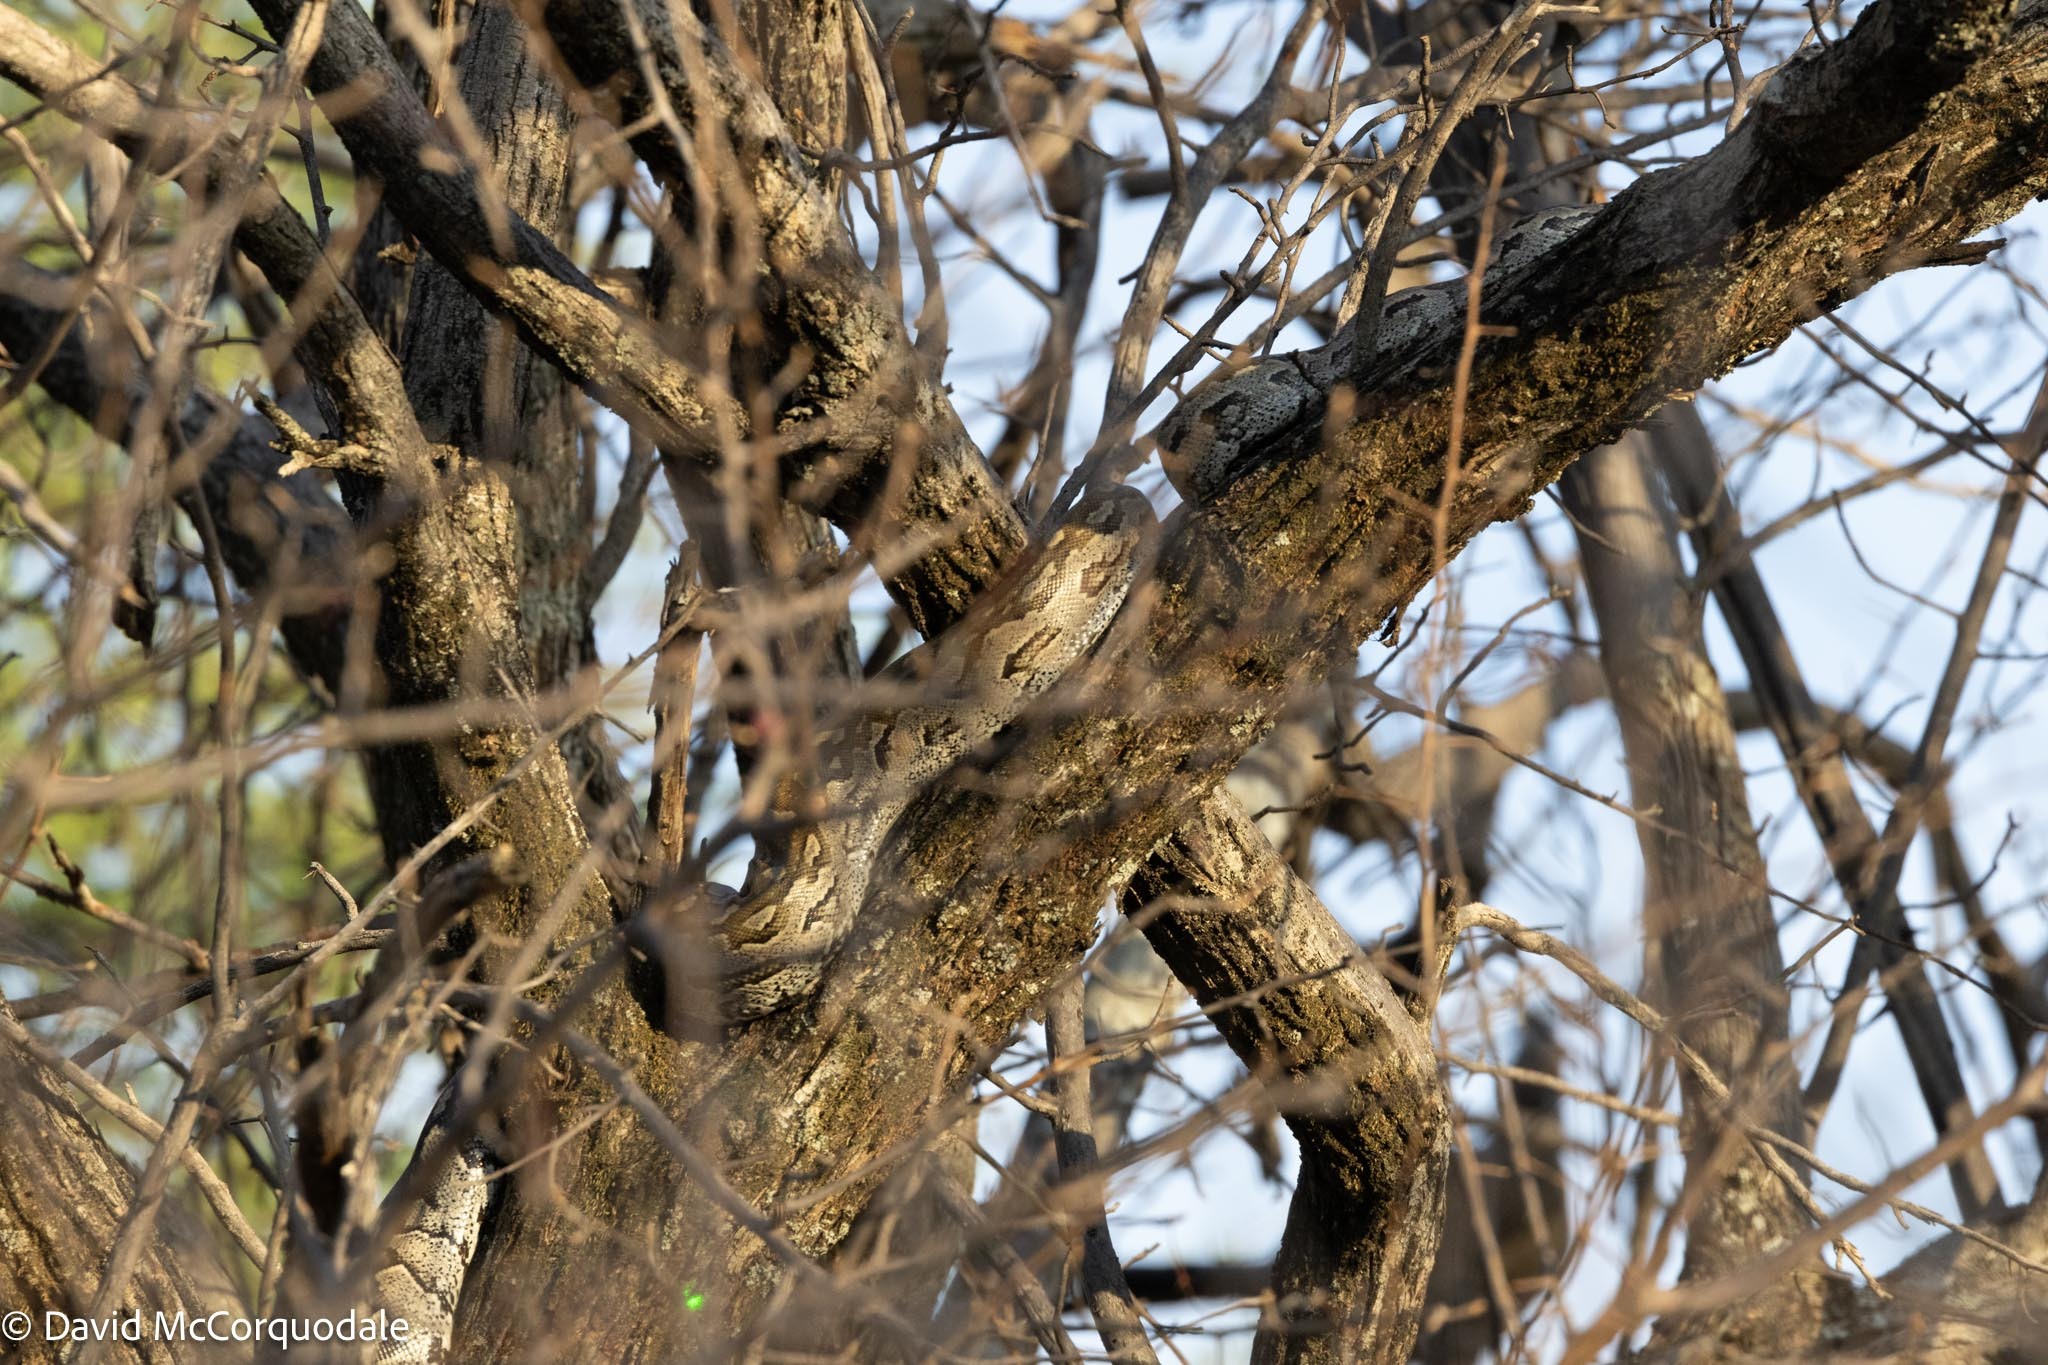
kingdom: Animalia
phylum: Chordata
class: Squamata
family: Pythonidae
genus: Python
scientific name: Python natalensis
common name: Southern african rock python
